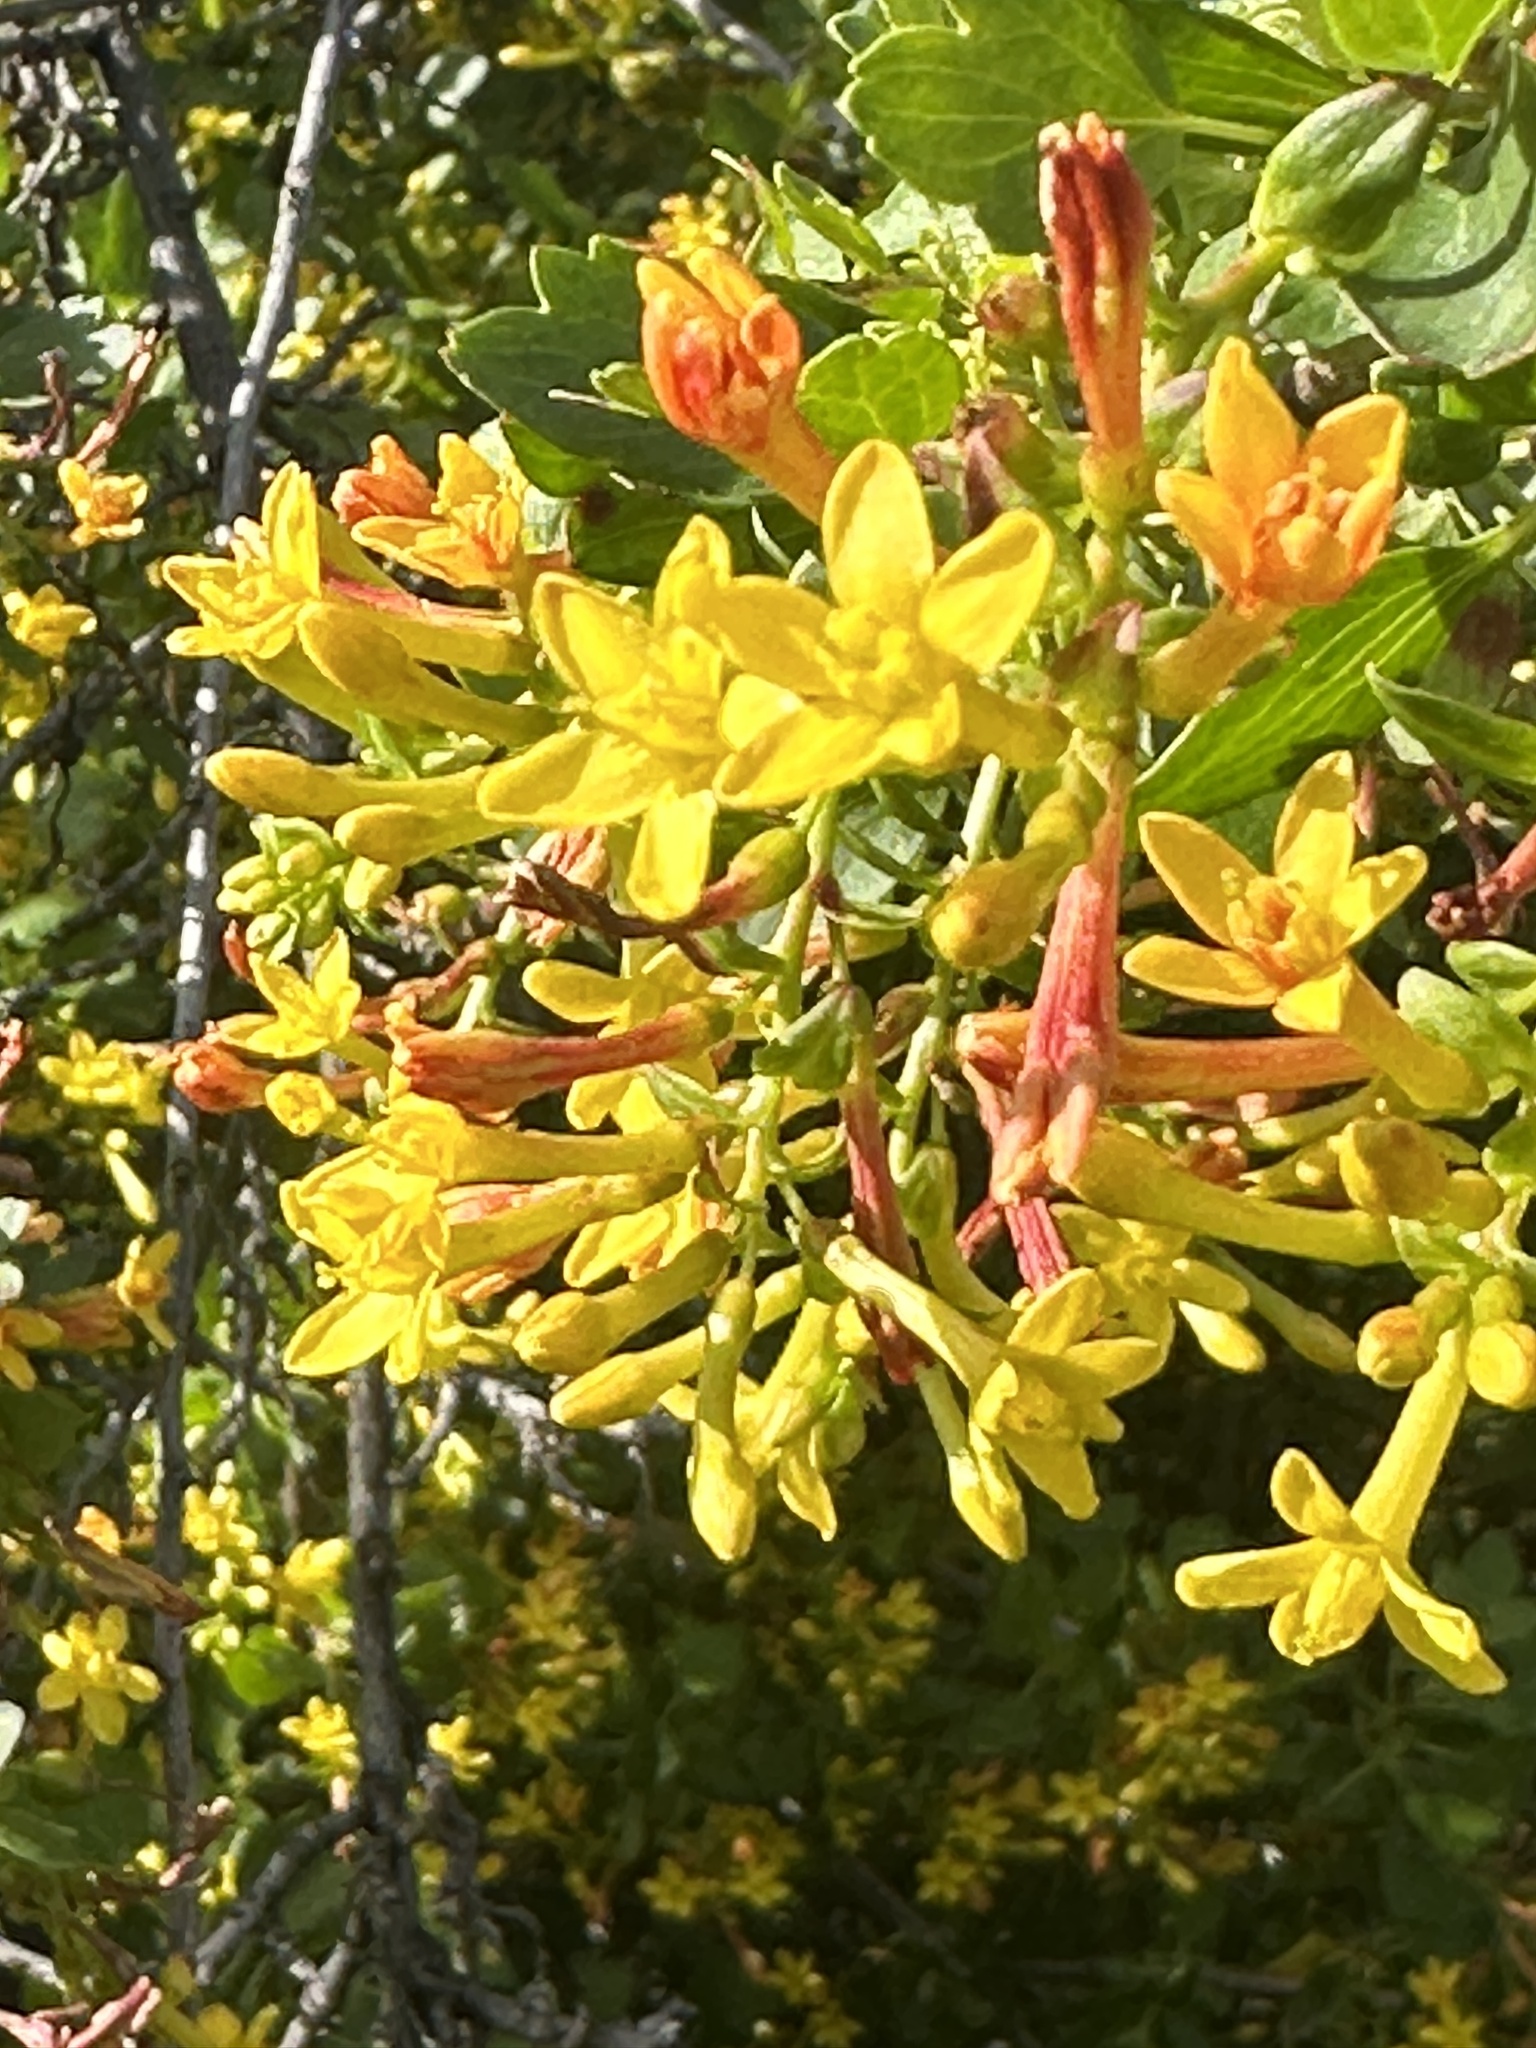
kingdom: Plantae
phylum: Tracheophyta
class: Magnoliopsida
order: Saxifragales
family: Grossulariaceae
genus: Ribes
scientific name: Ribes aureum
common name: Golden currant
